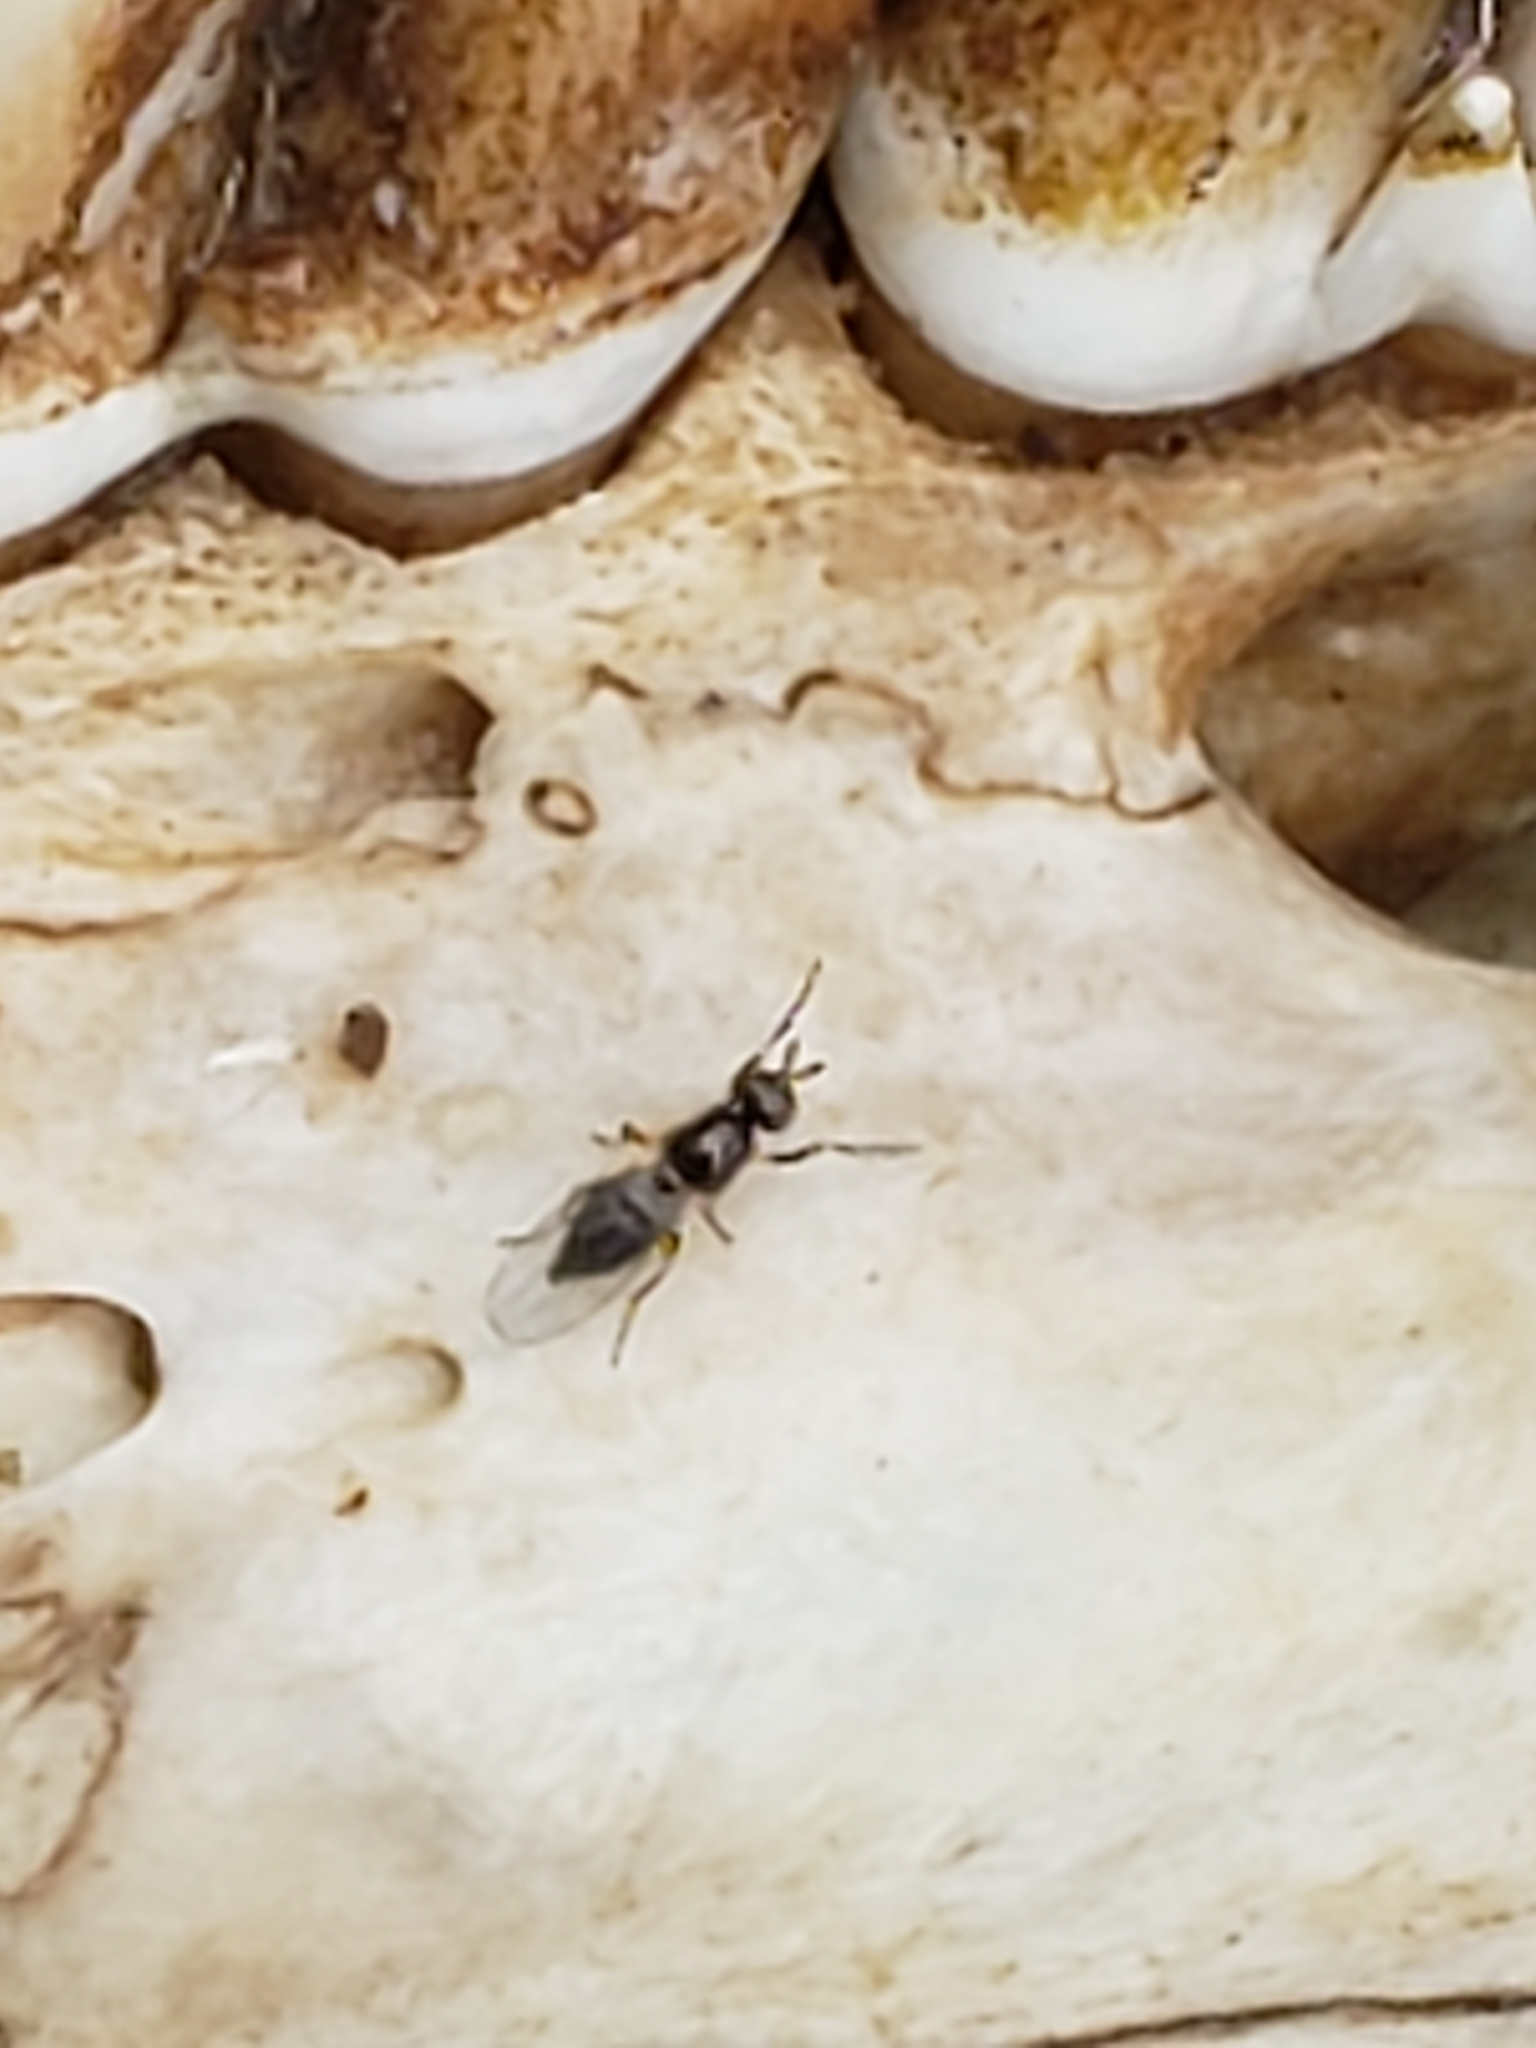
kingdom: Animalia
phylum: Arthropoda
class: Insecta
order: Diptera
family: Piophilidae
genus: Prochyliza
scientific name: Prochyliza xanthostoma
